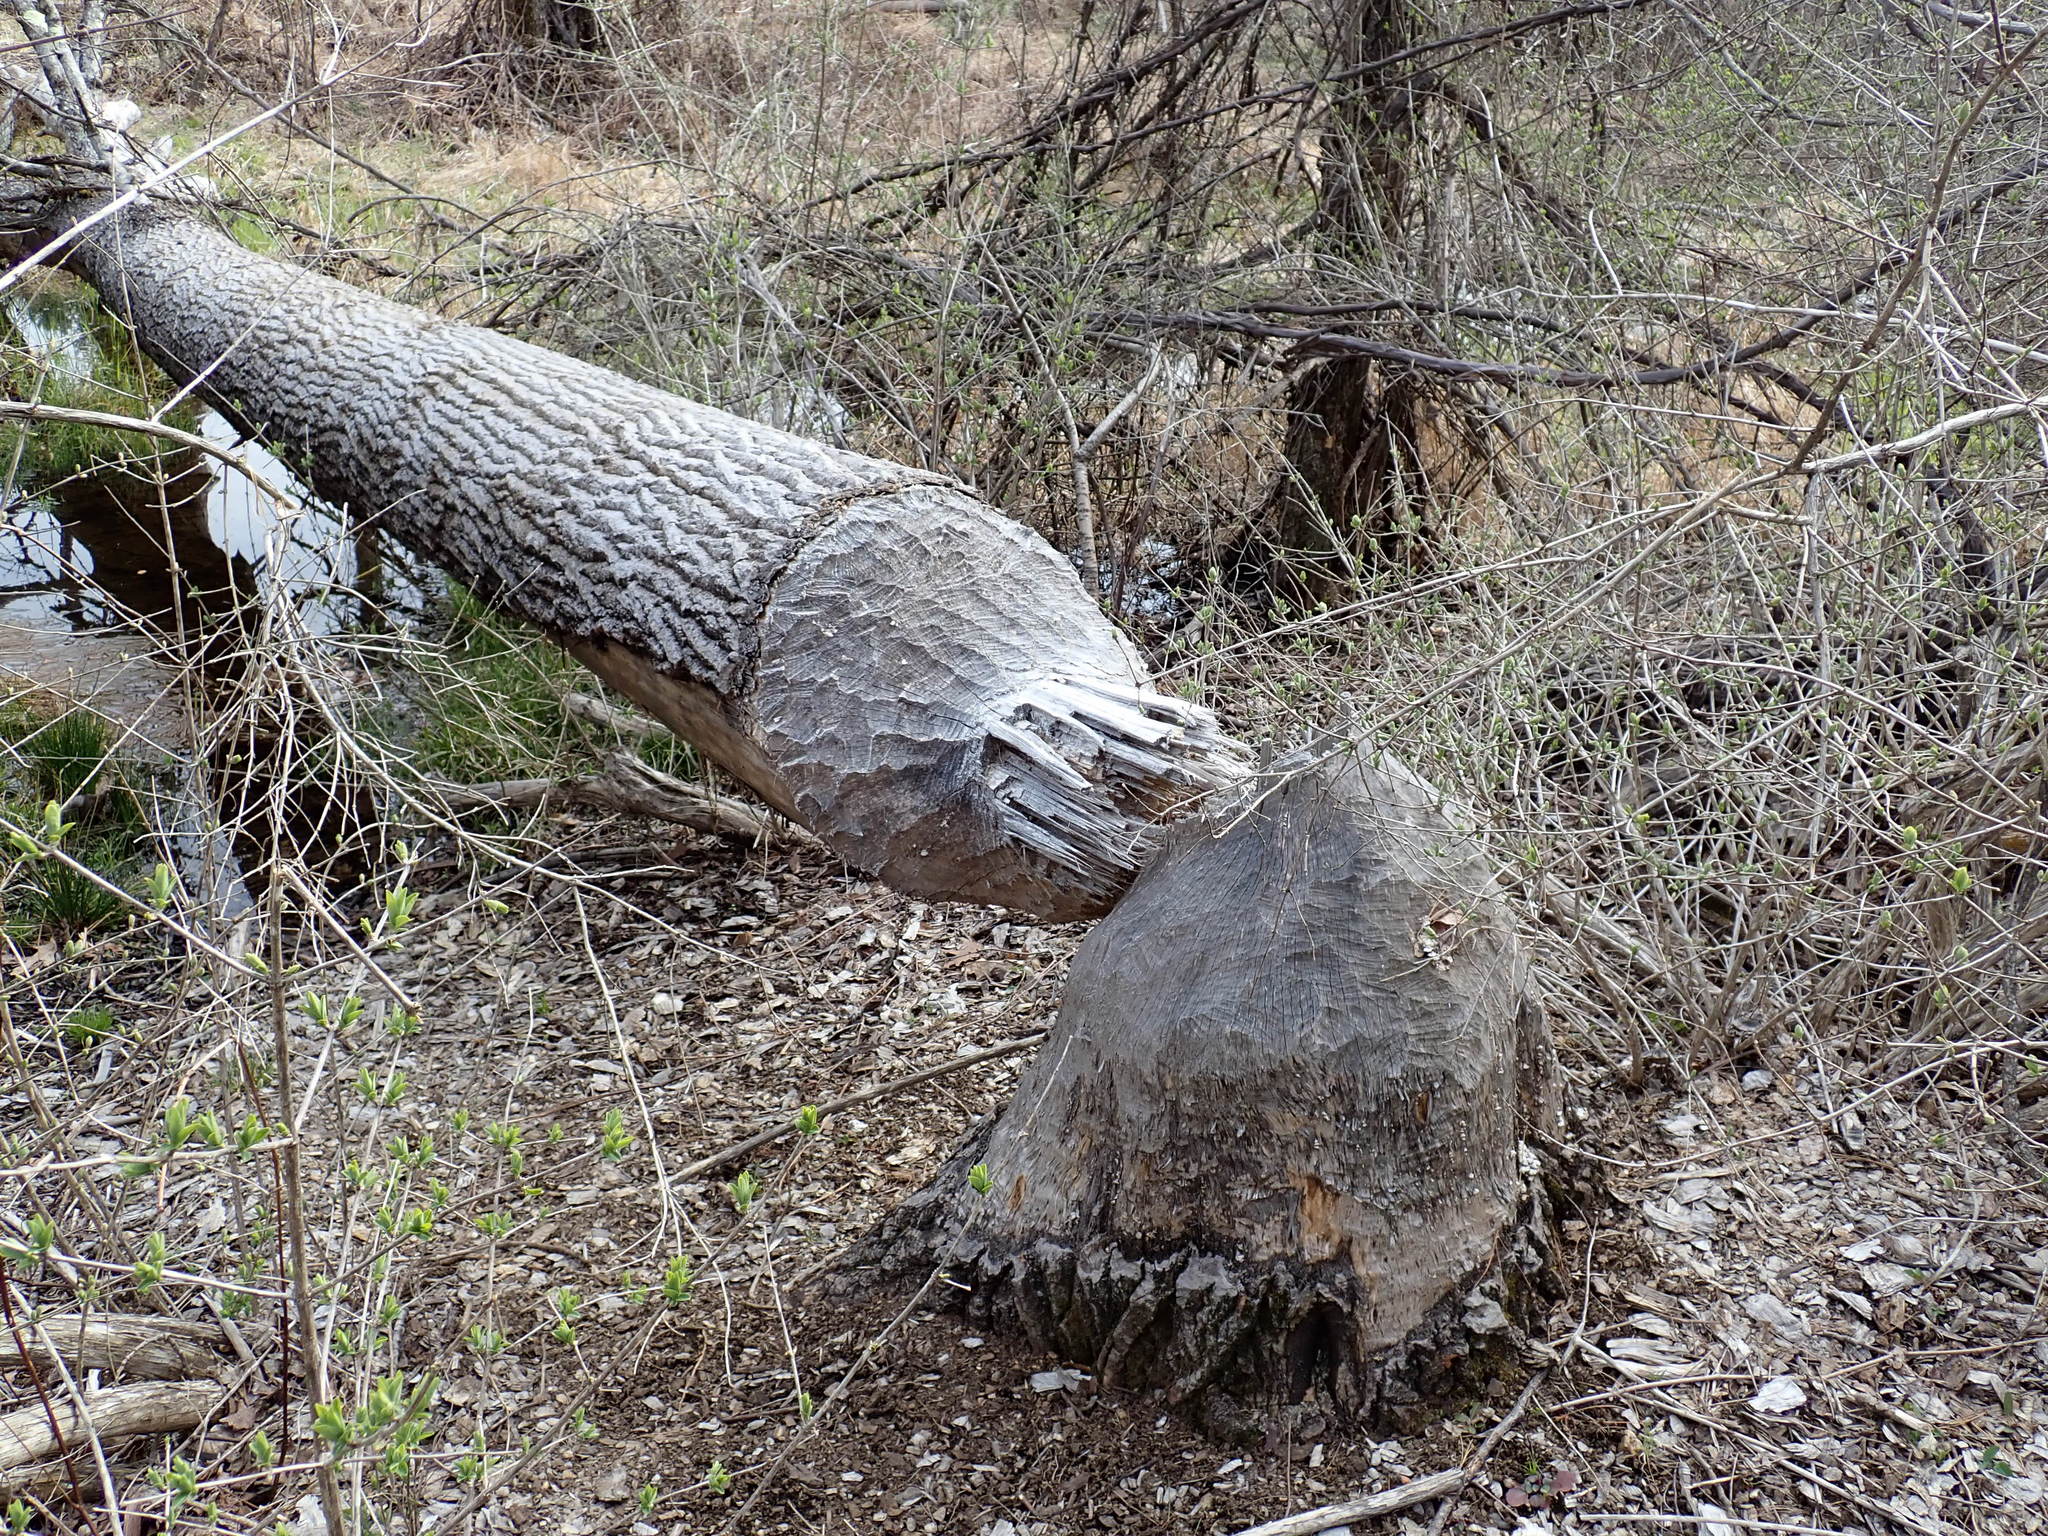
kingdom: Animalia
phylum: Chordata
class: Mammalia
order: Rodentia
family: Castoridae
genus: Castor
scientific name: Castor canadensis
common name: American beaver
